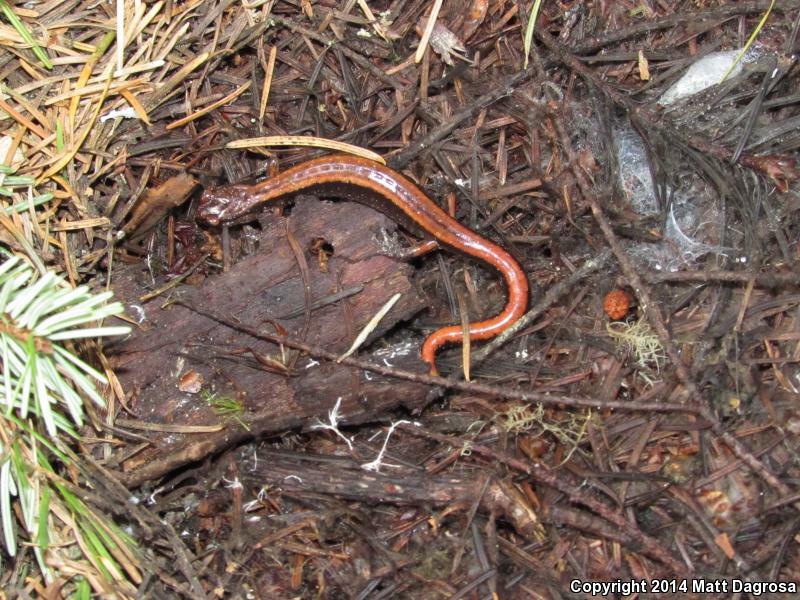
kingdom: Animalia
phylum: Chordata
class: Amphibia
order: Caudata
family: Plethodontidae
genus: Plethodon
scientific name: Plethodon vehiculum
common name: Western red-backed salamander
